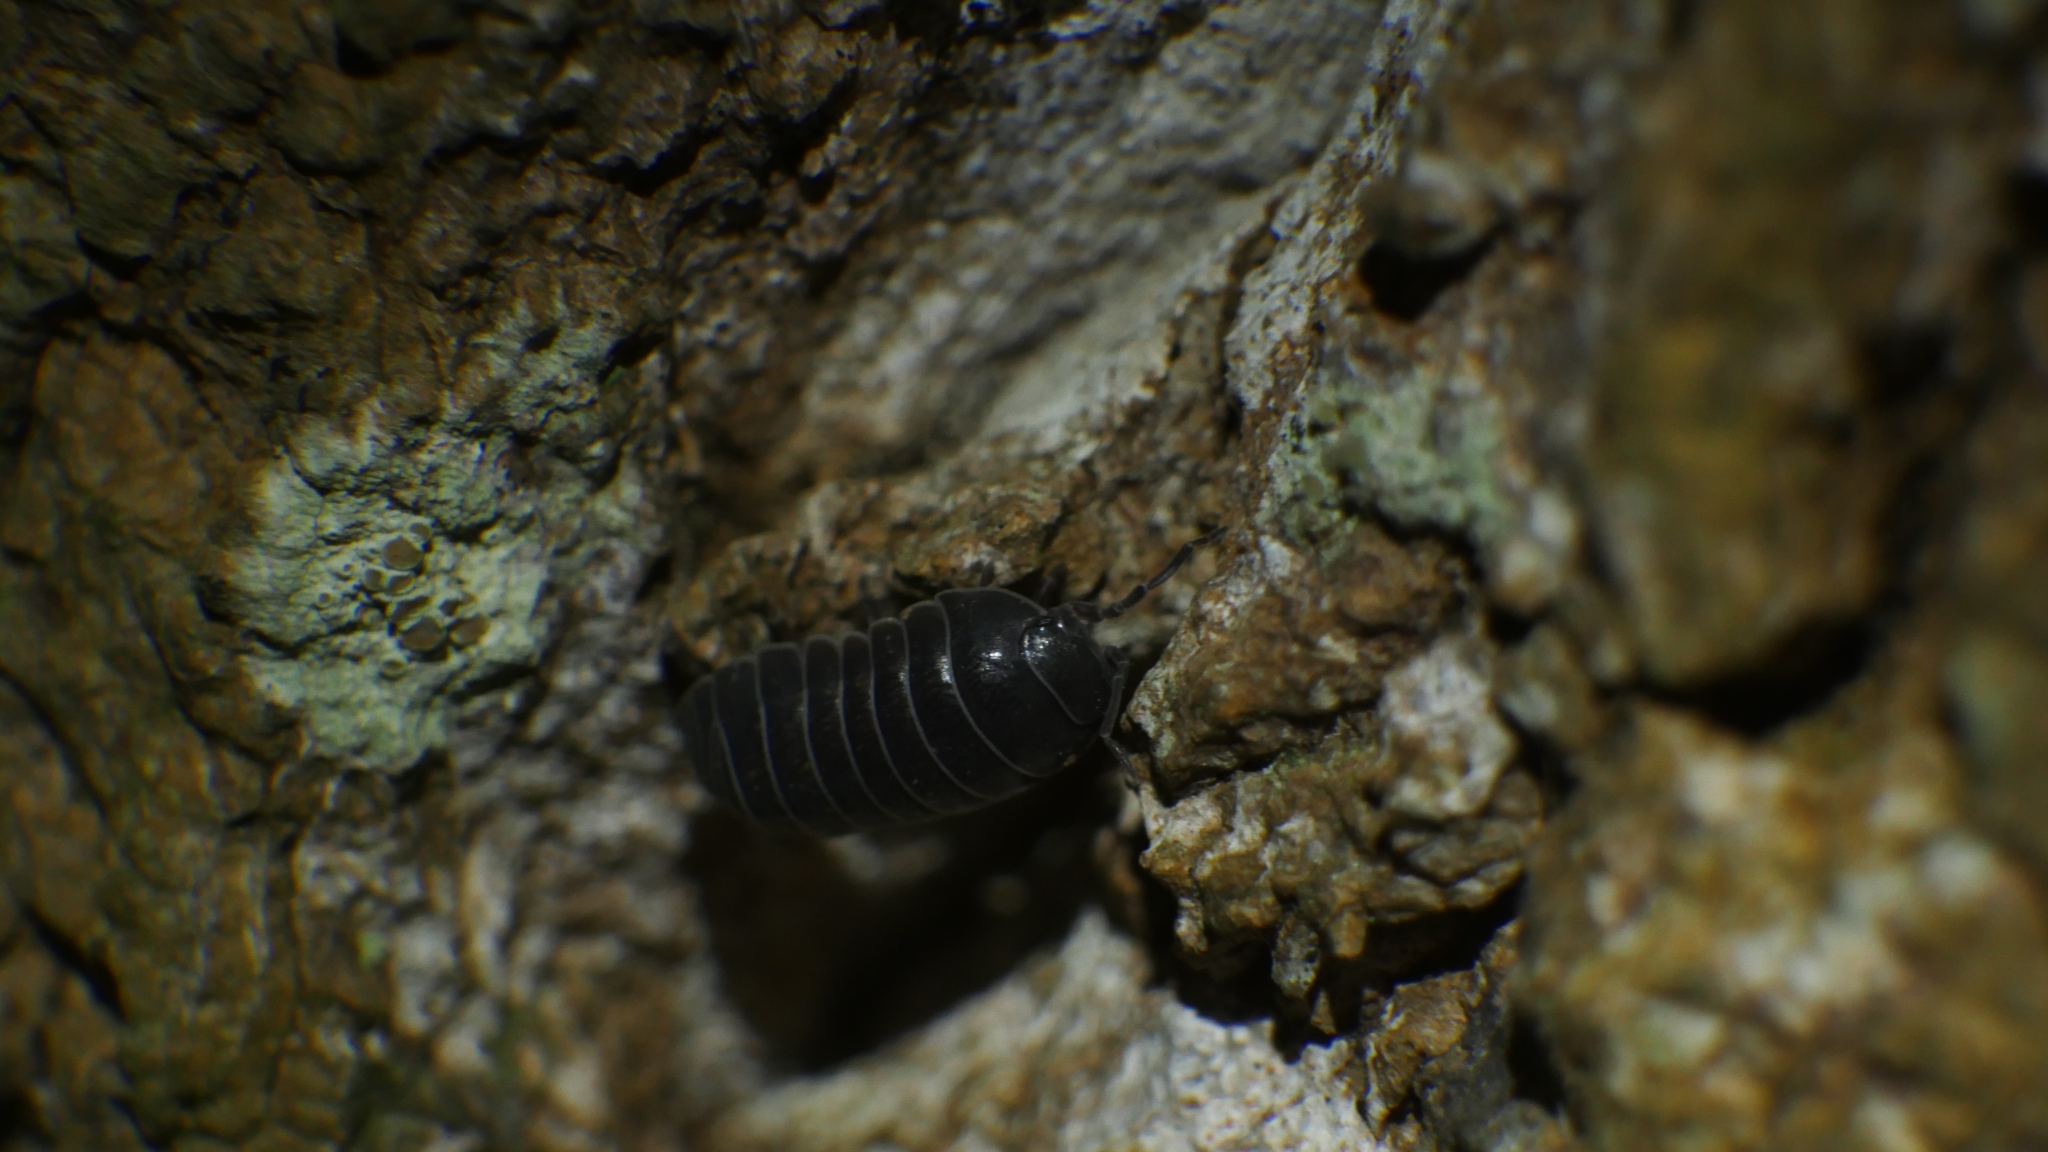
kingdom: Animalia
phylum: Arthropoda
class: Malacostraca
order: Isopoda
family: Armadillidiidae
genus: Armadillidium
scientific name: Armadillidium vulgare
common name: Common pill woodlouse
